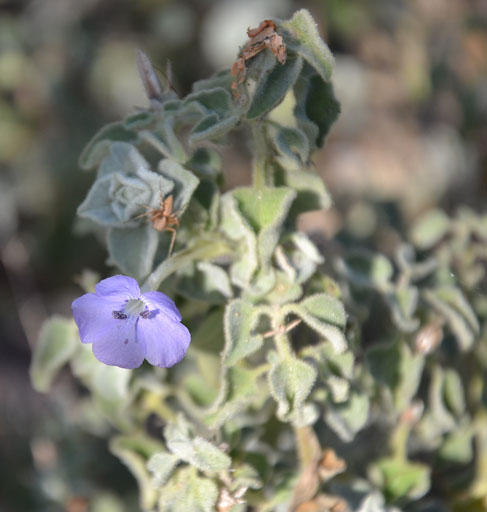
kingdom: Plantae
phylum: Tracheophyta
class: Magnoliopsida
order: Lamiales
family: Acanthaceae
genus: Barleria
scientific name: Barleria heterotricha
